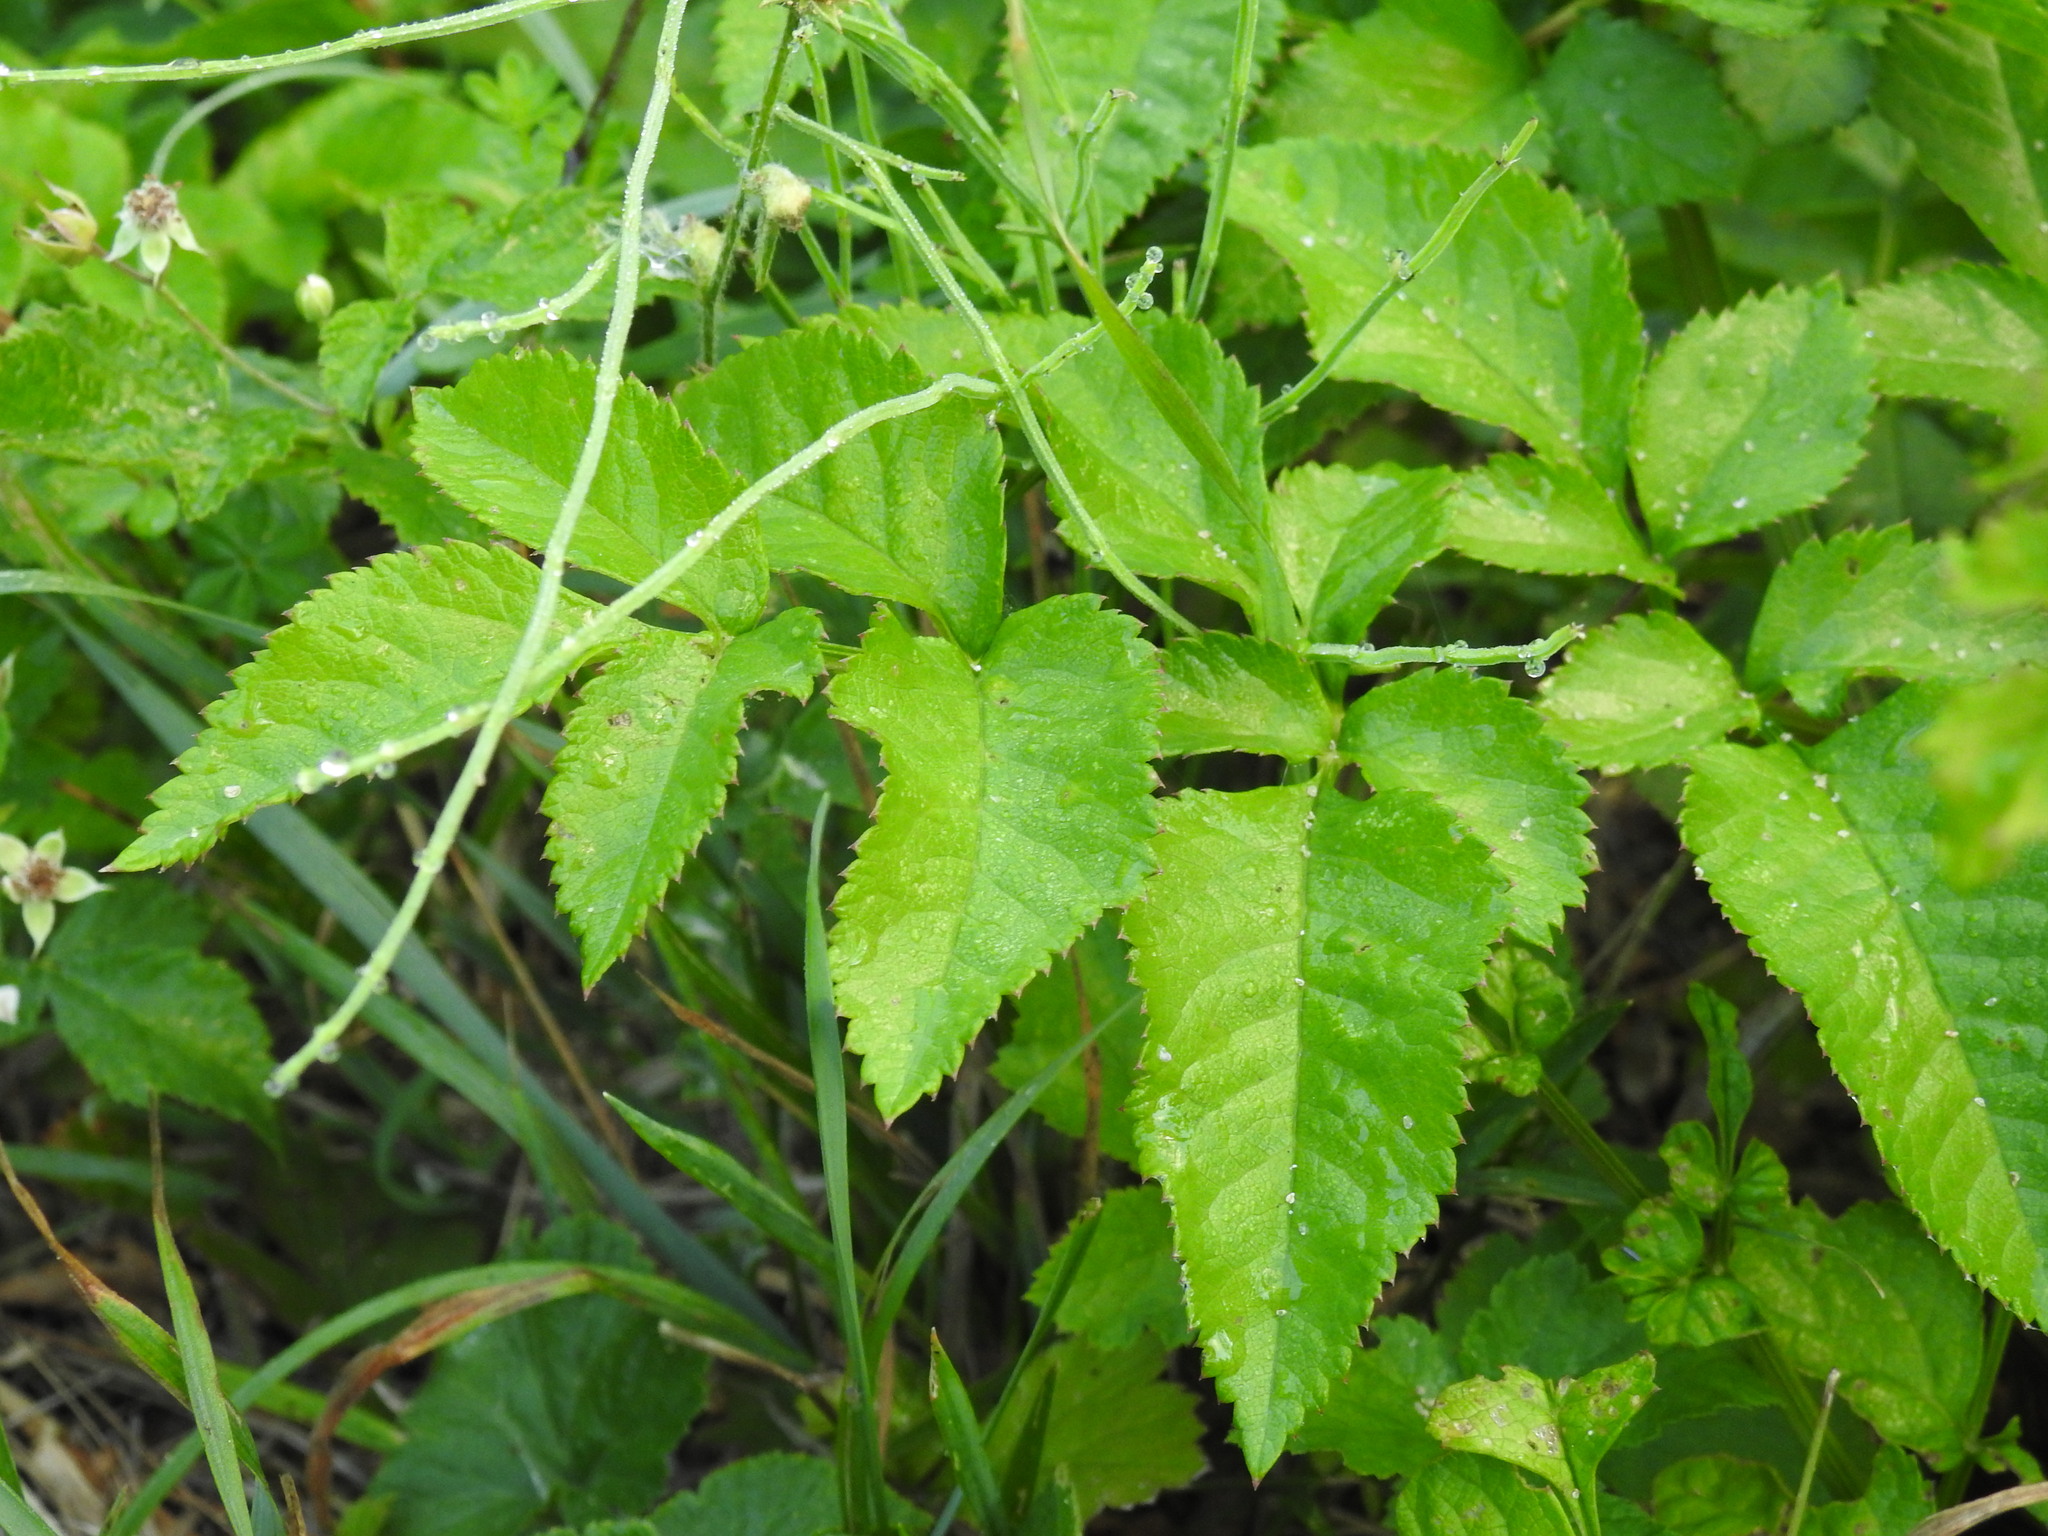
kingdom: Plantae
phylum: Tracheophyta
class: Magnoliopsida
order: Apiales
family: Apiaceae
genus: Angelica
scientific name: Angelica sylvestris
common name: Wild angelica
